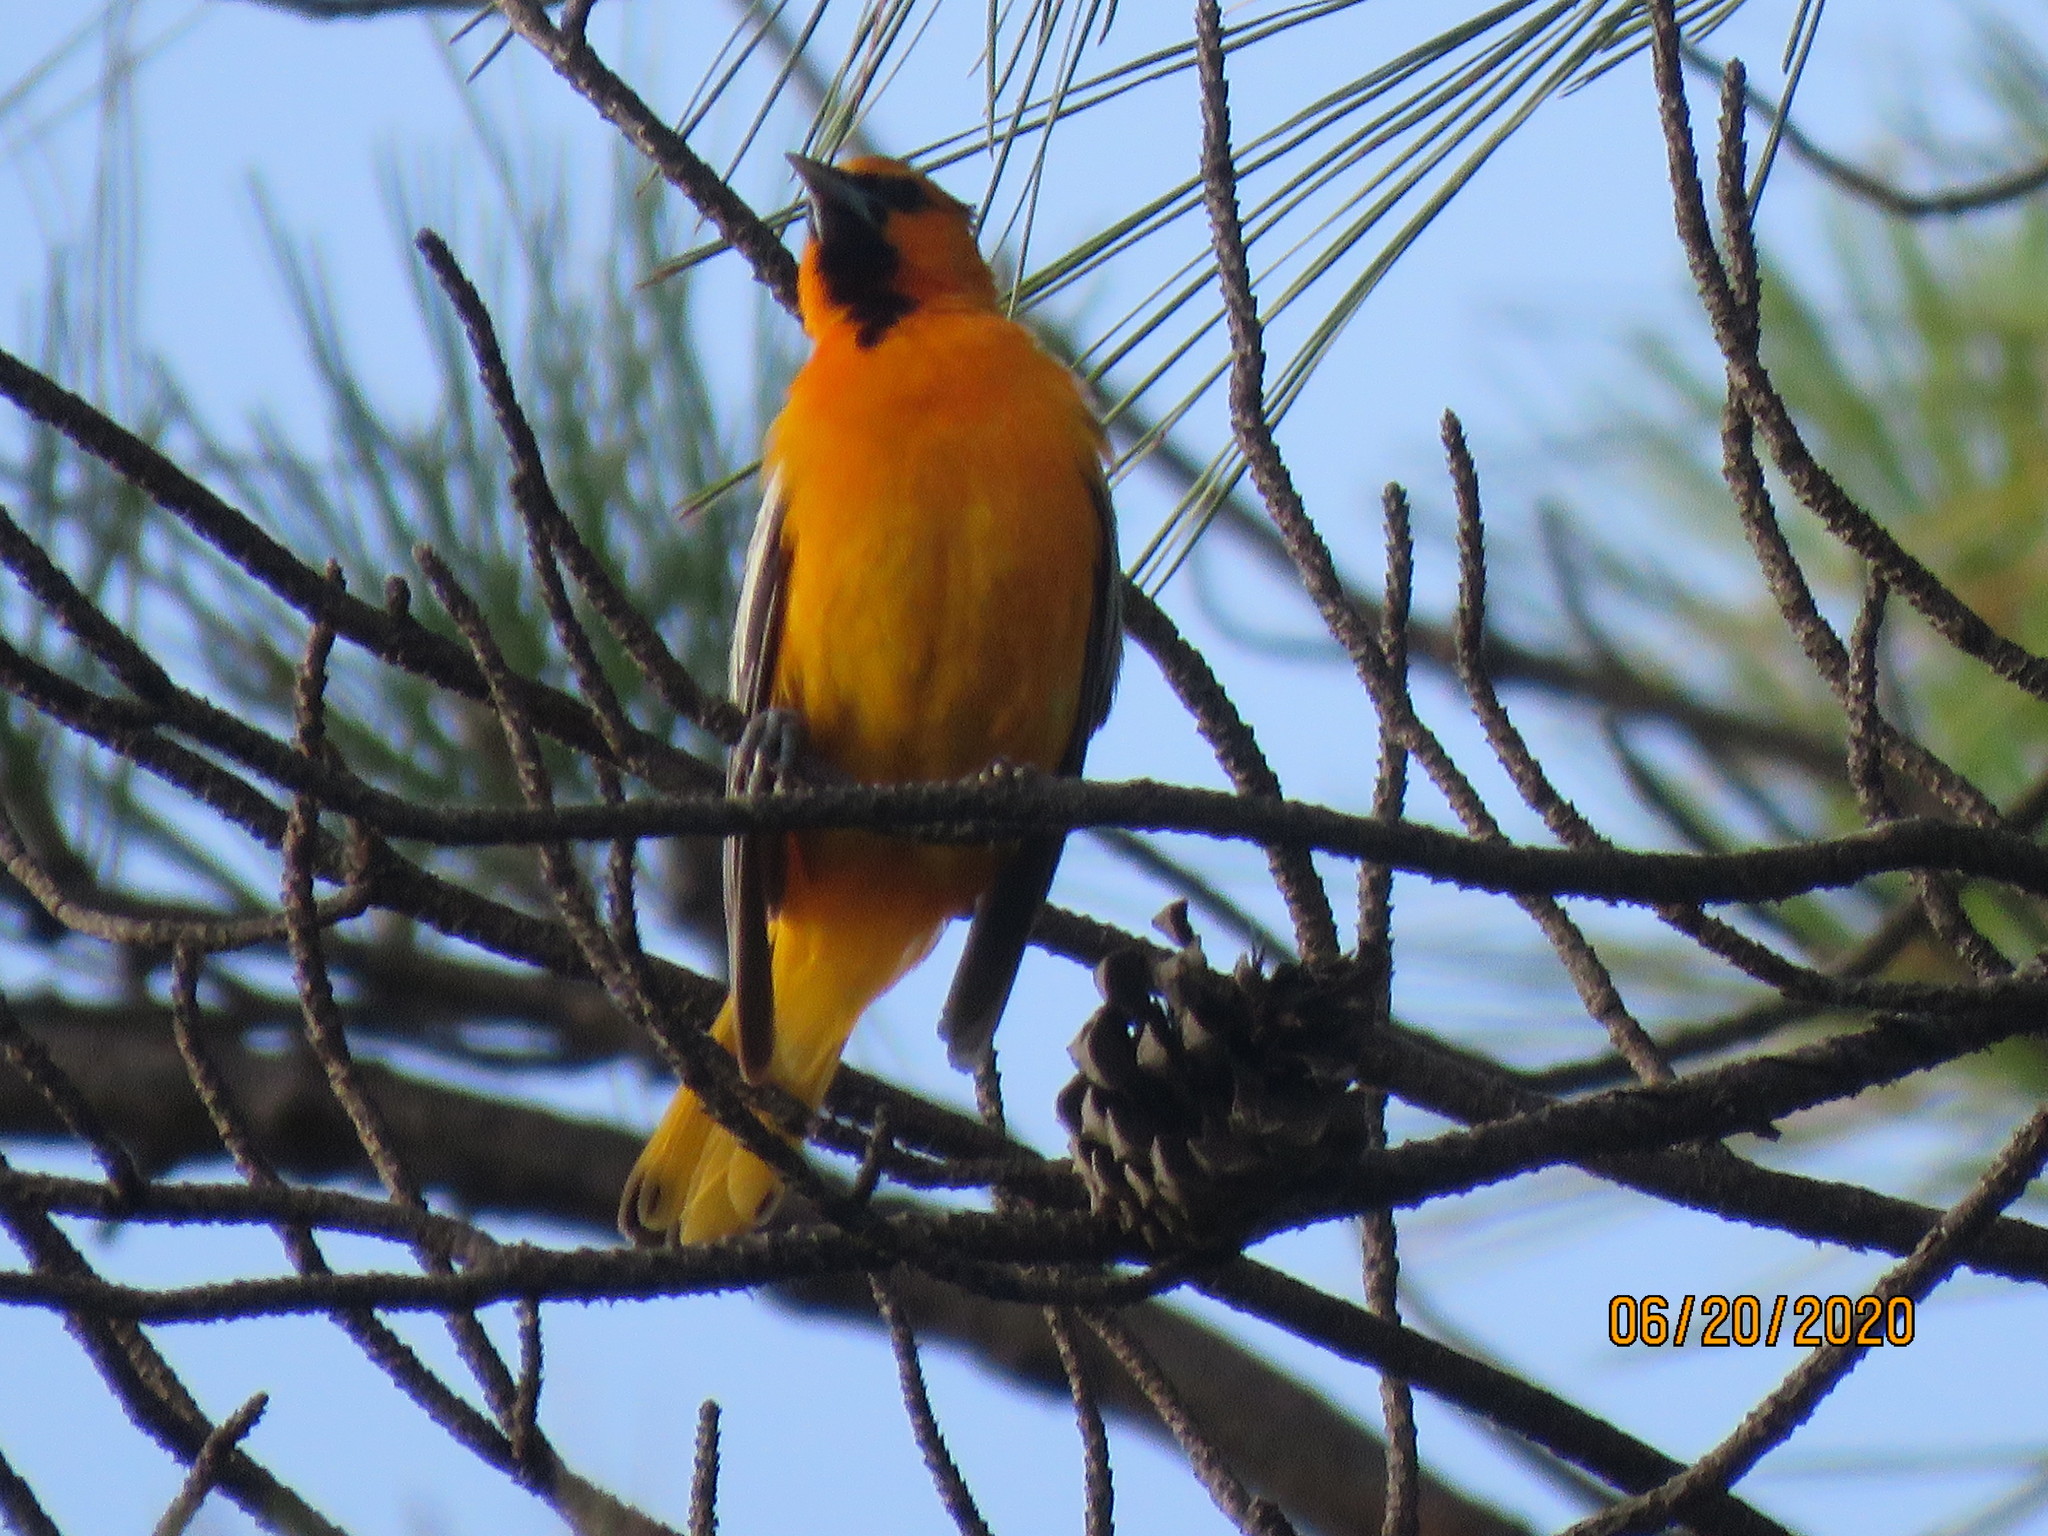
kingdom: Animalia
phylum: Chordata
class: Aves
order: Passeriformes
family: Icteridae
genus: Icterus
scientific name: Icterus bullockii
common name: Bullock's oriole
